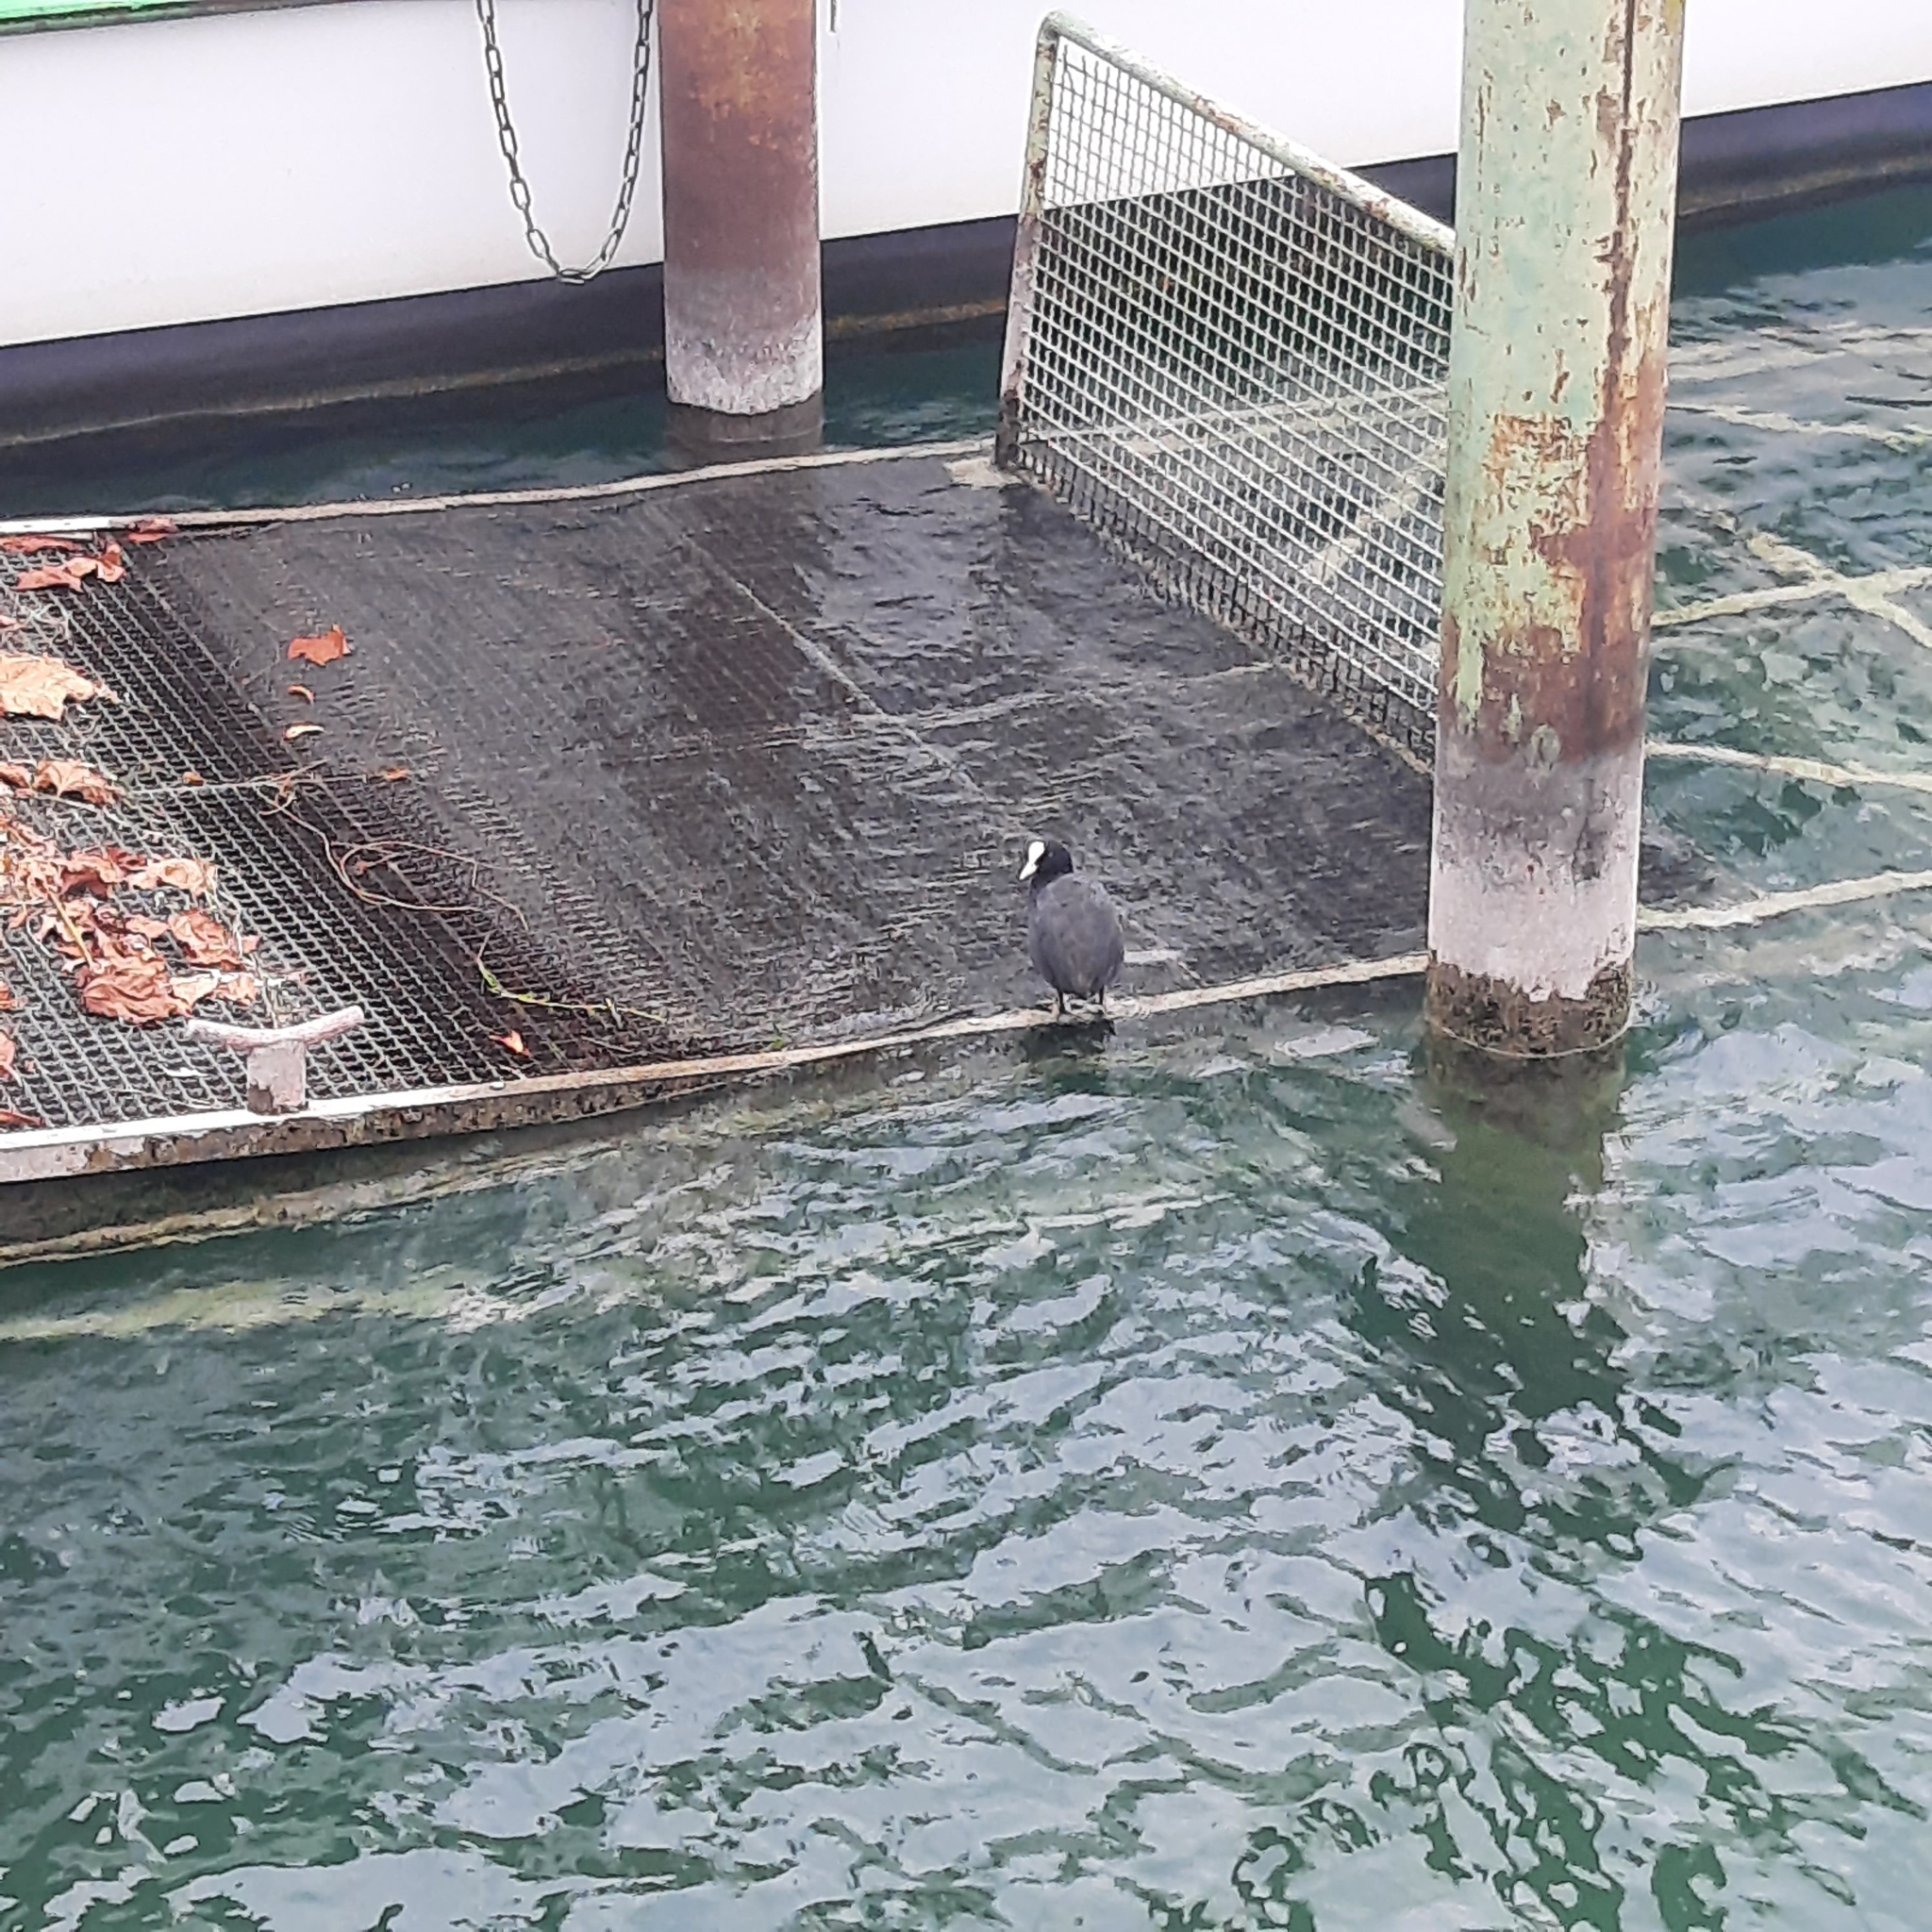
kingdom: Animalia
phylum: Chordata
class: Aves
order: Gruiformes
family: Rallidae
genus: Fulica
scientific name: Fulica atra
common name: Eurasian coot
